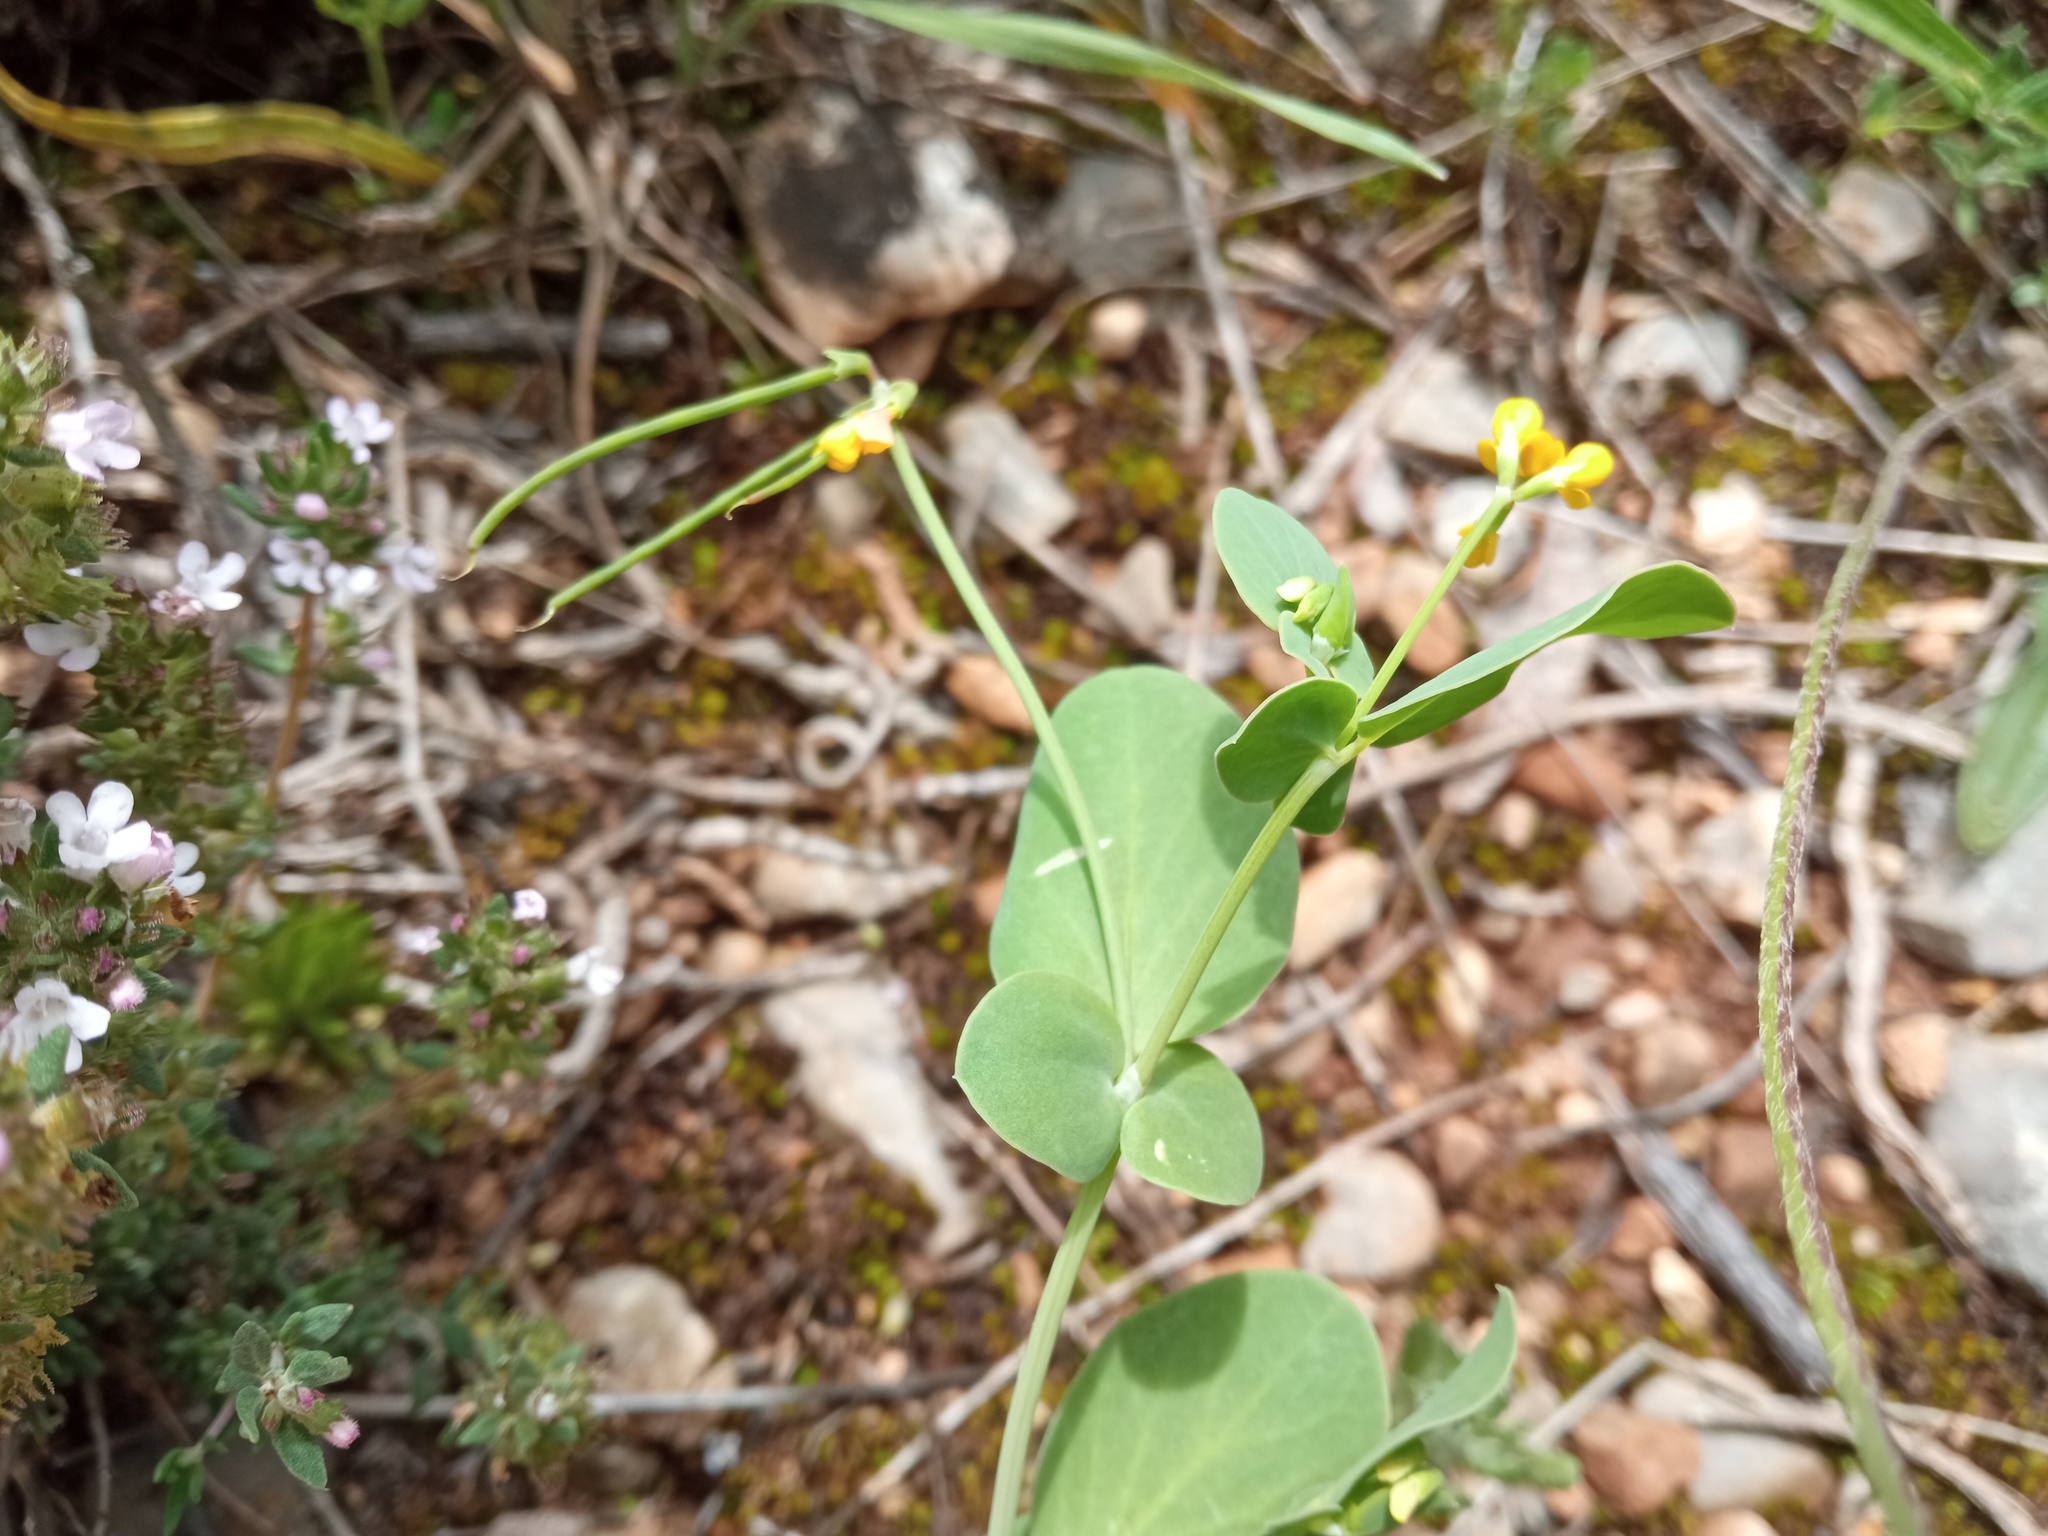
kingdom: Plantae
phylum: Tracheophyta
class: Magnoliopsida
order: Fabales
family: Fabaceae
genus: Coronilla
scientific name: Coronilla scorpioides
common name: Annual scorpion-vetch
